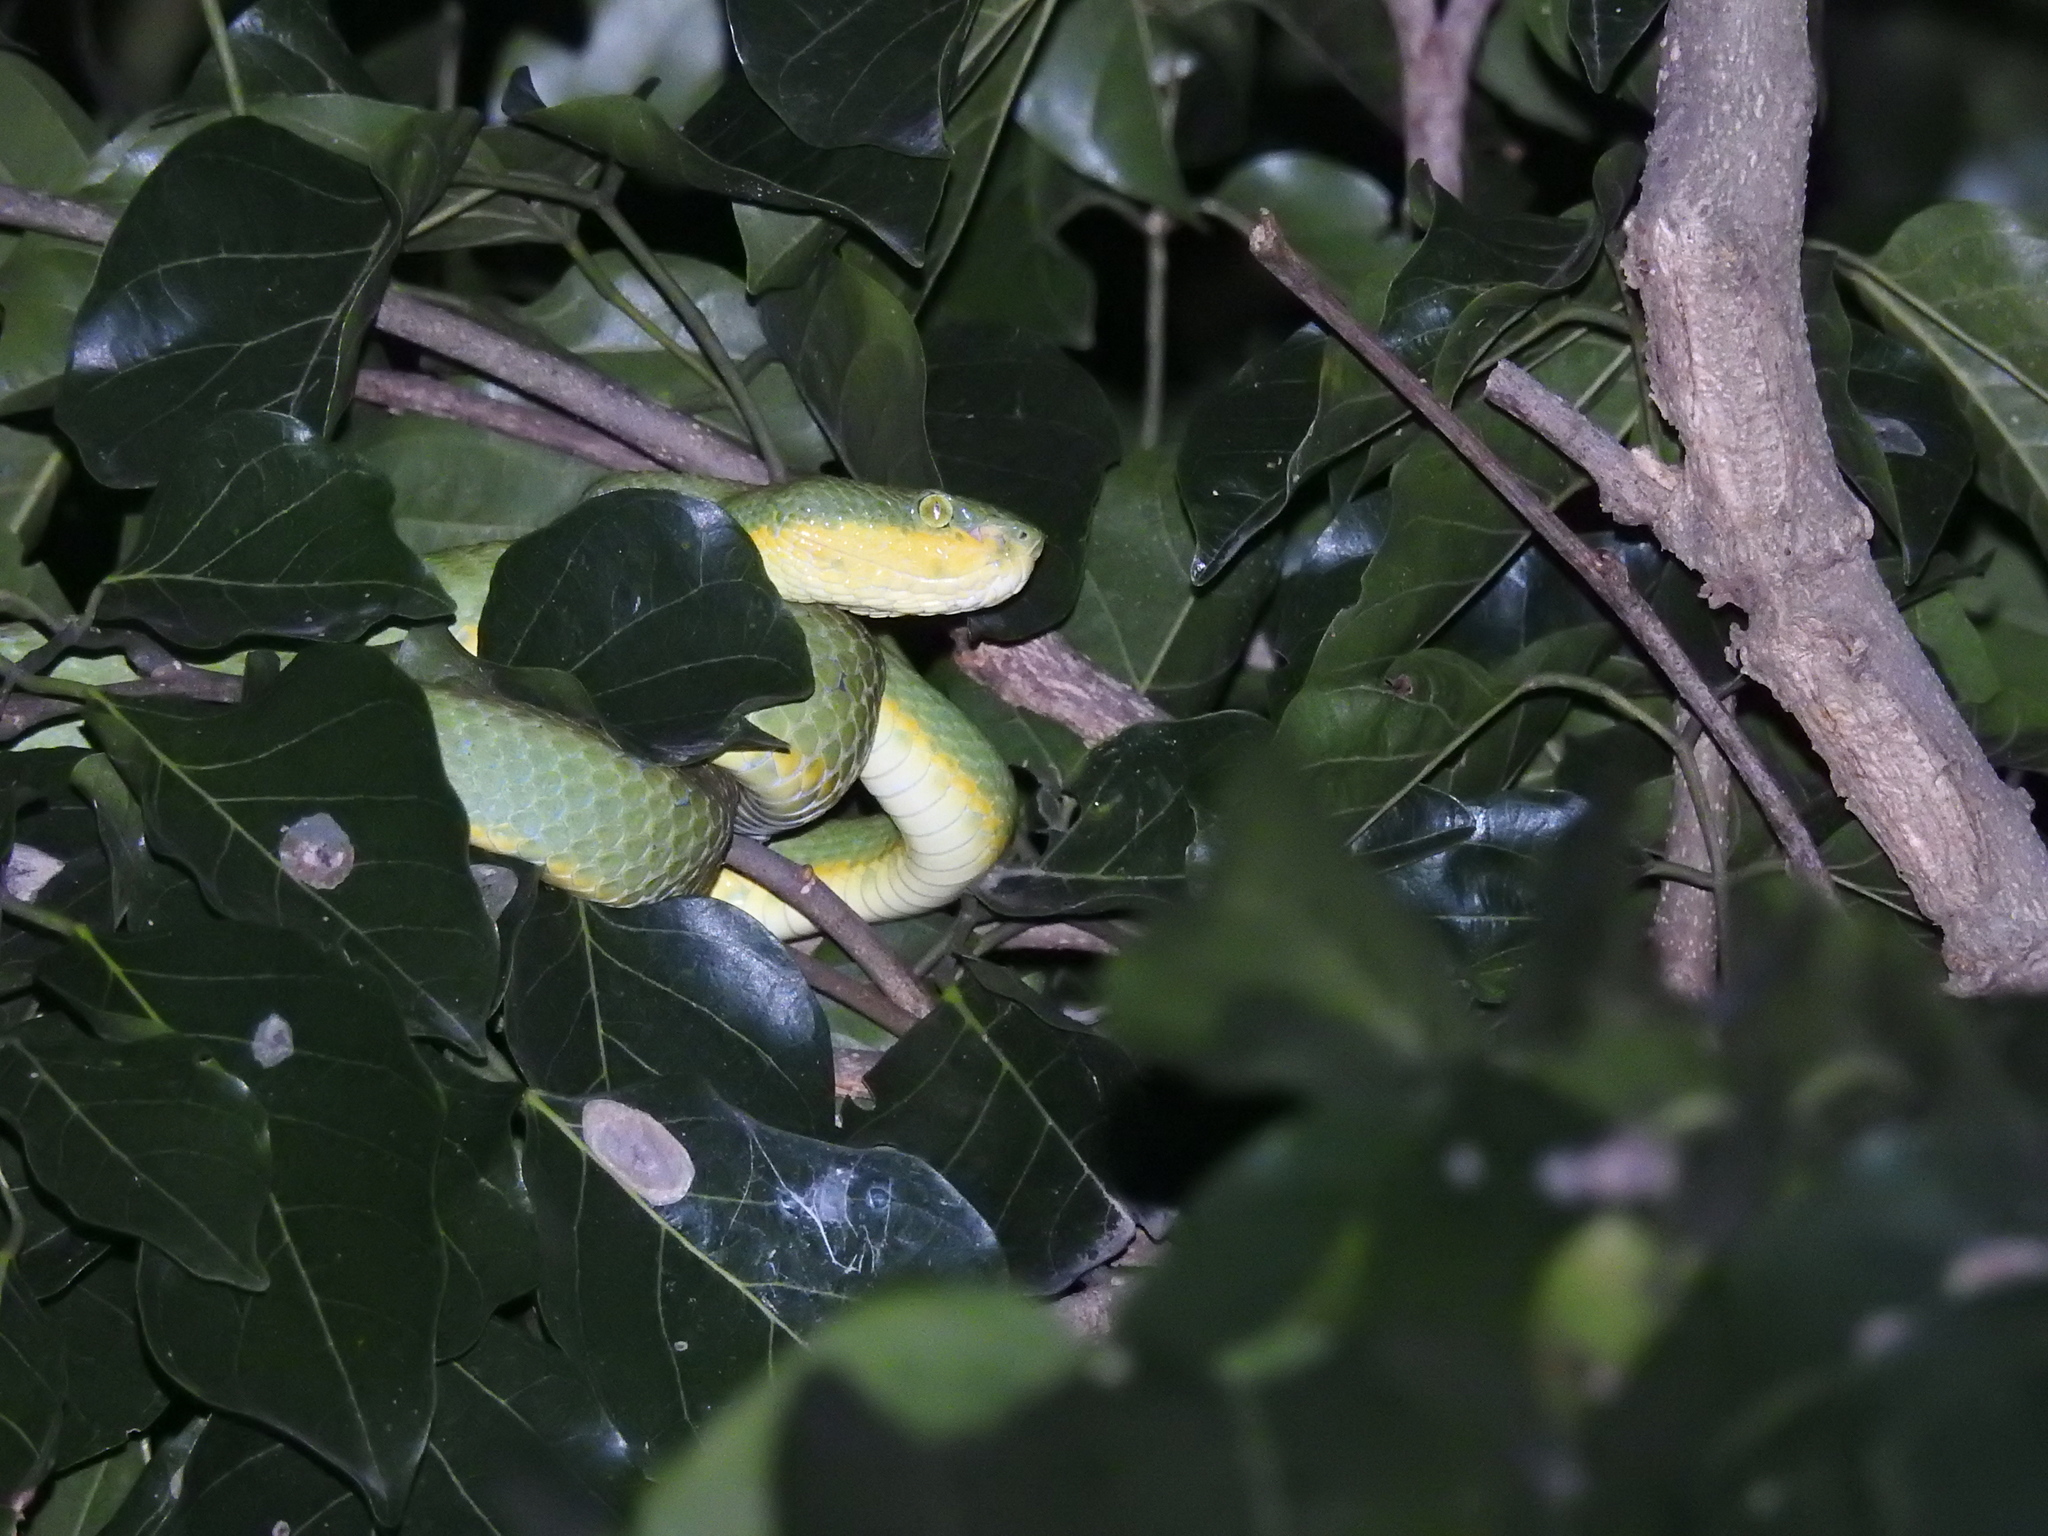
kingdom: Animalia
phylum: Chordata
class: Squamata
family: Viperidae
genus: Craspedocephalus
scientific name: Craspedocephalus gramineus
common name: Common bamboo viper
